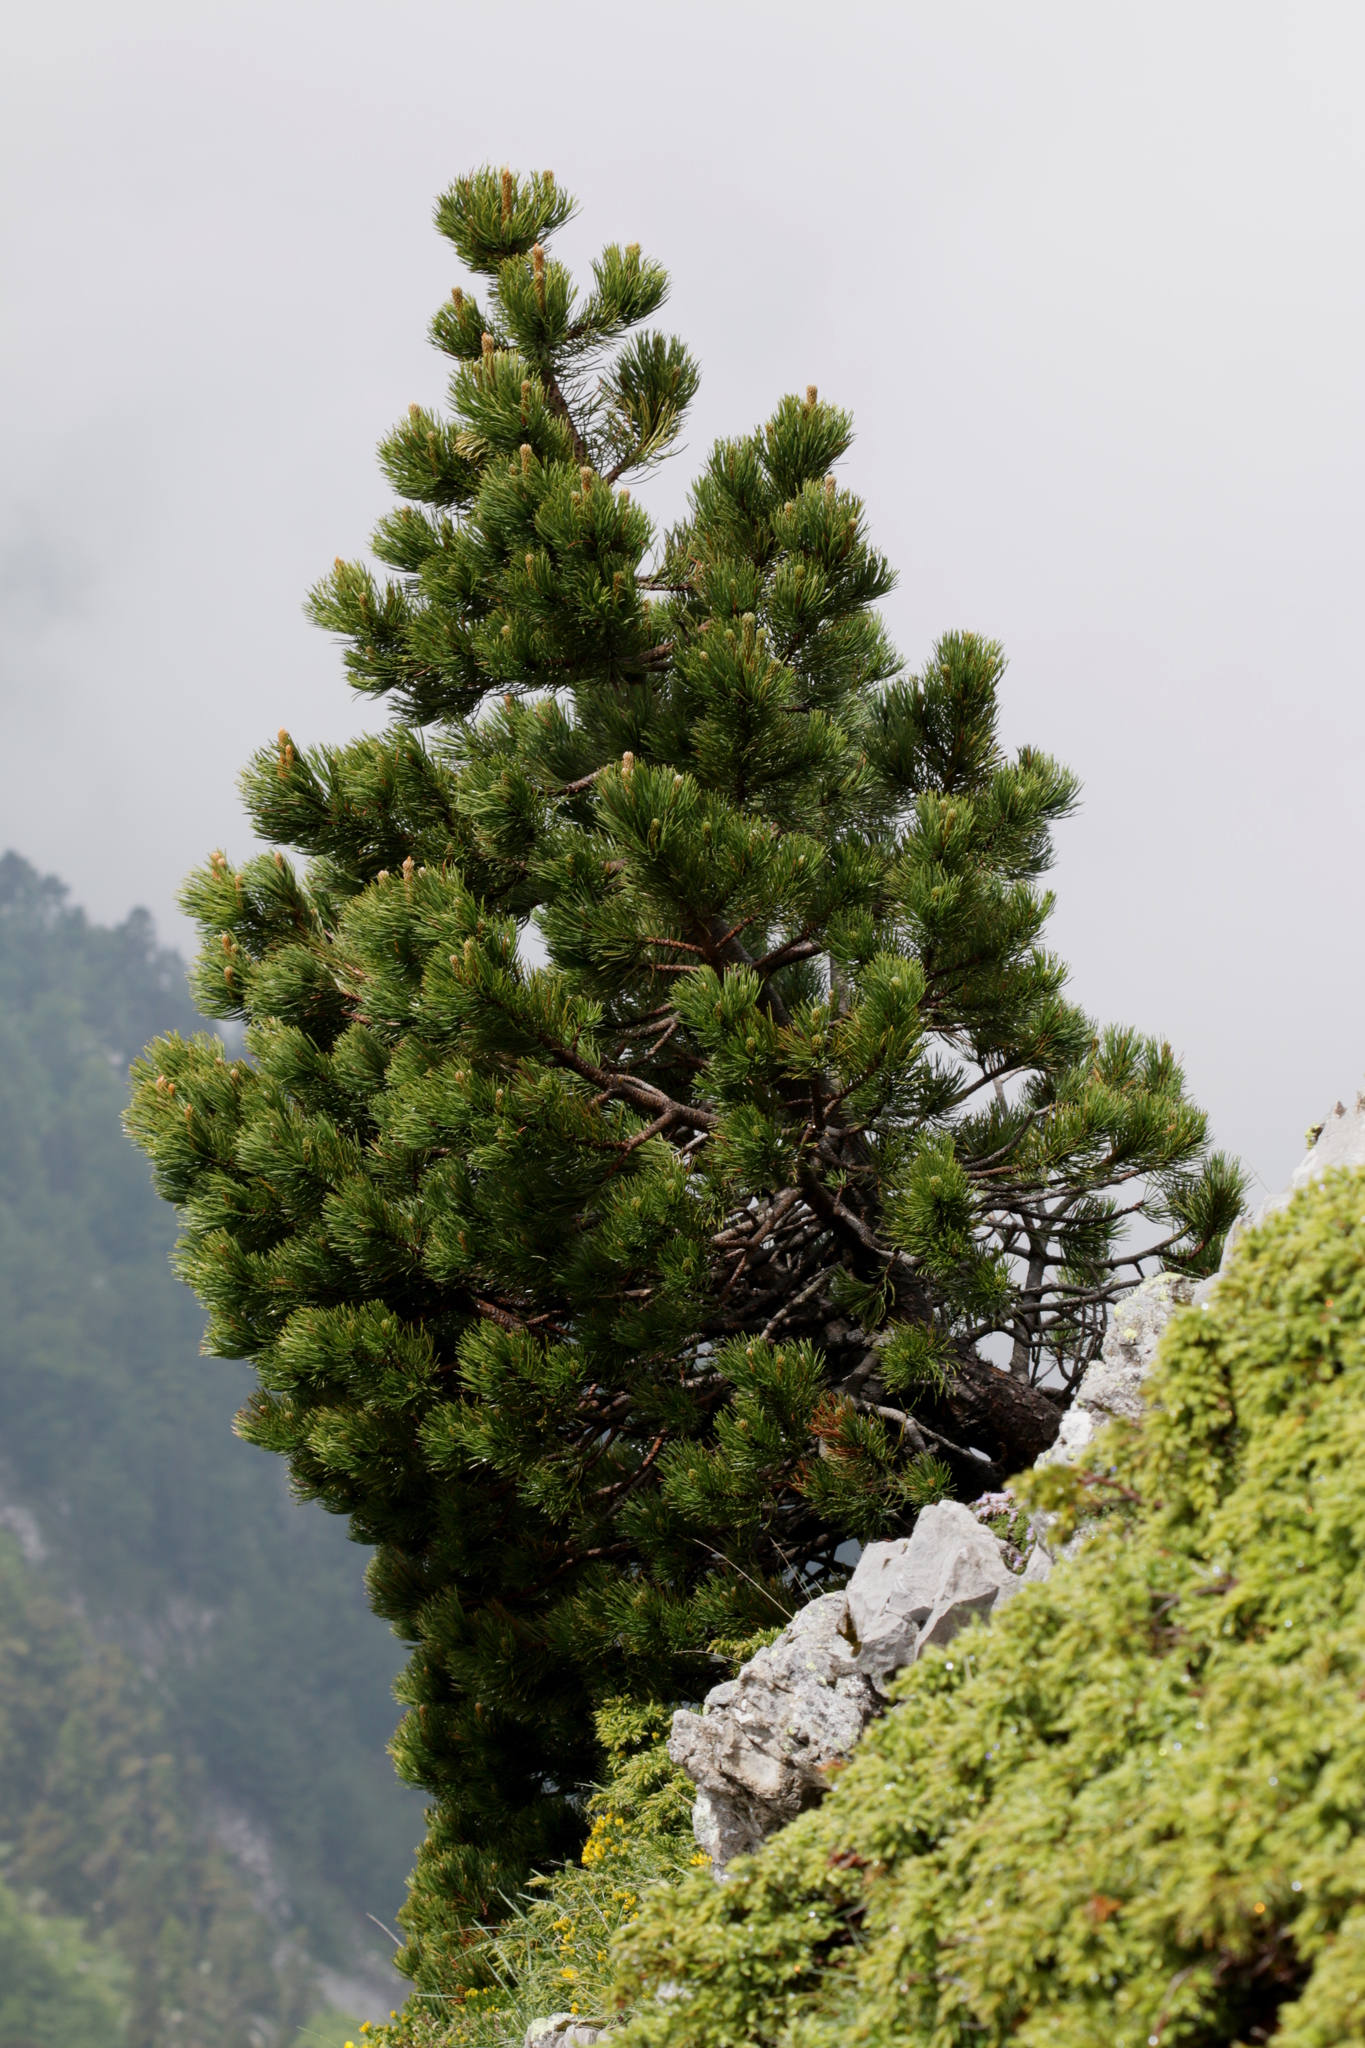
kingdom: Plantae
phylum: Tracheophyta
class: Pinopsida
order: Pinales
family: Pinaceae
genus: Pinus
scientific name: Pinus uncinata
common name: Mountain pine
